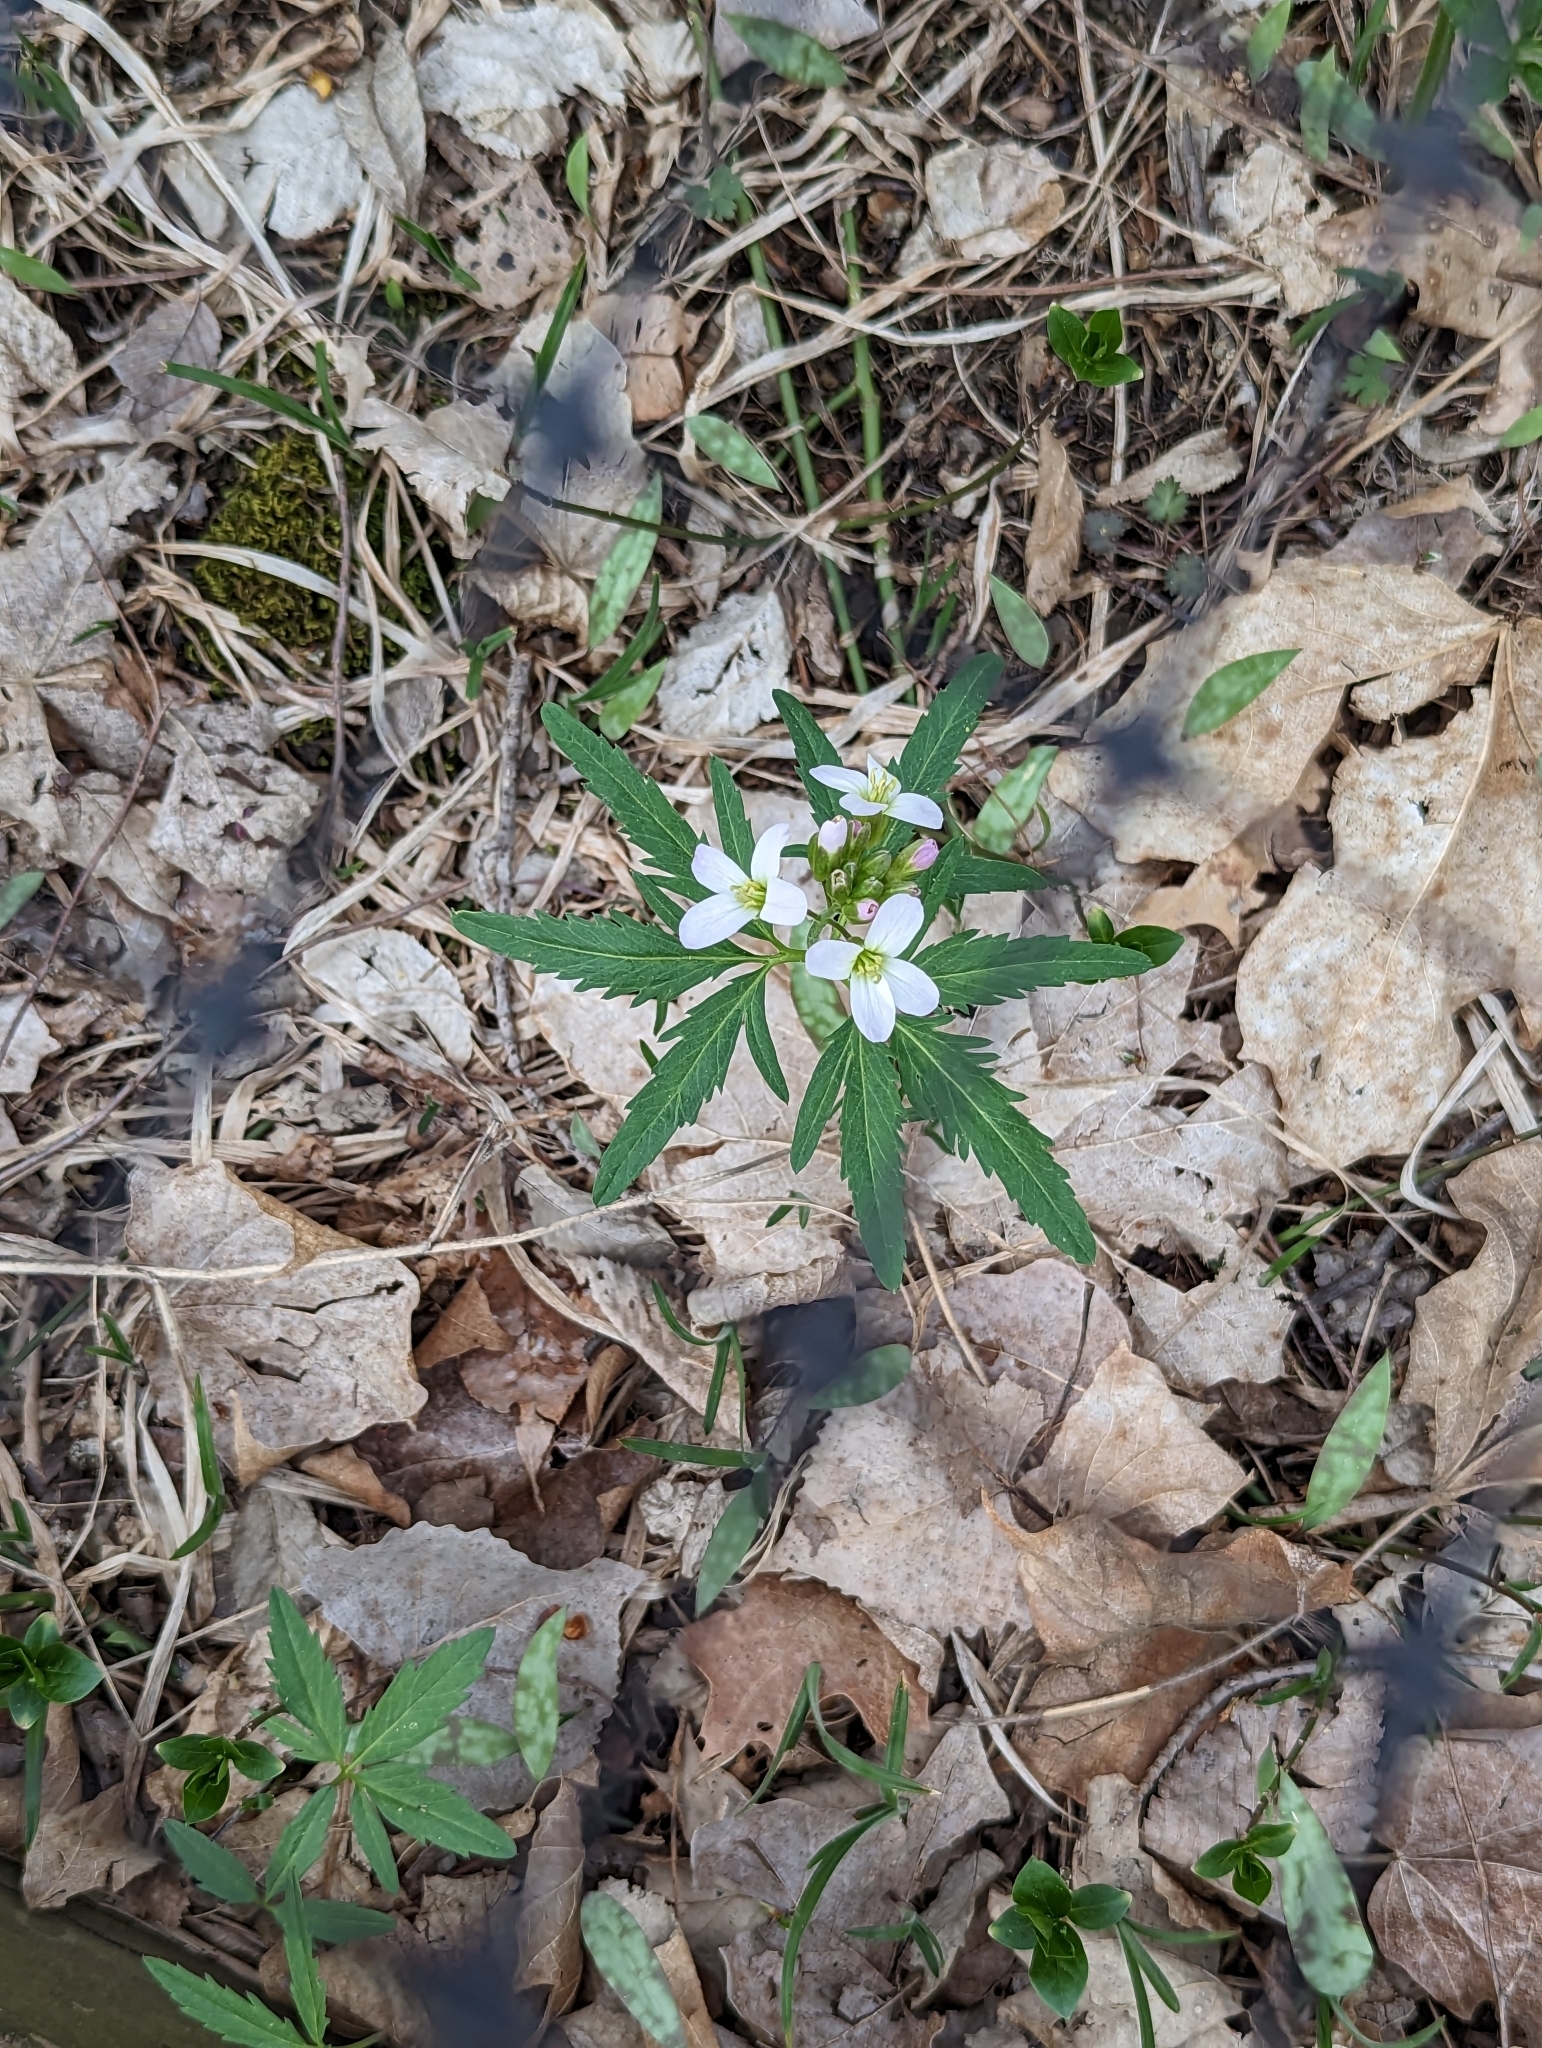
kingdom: Plantae
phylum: Tracheophyta
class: Magnoliopsida
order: Brassicales
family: Brassicaceae
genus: Cardamine
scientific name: Cardamine concatenata
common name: Cut-leaf toothcup
